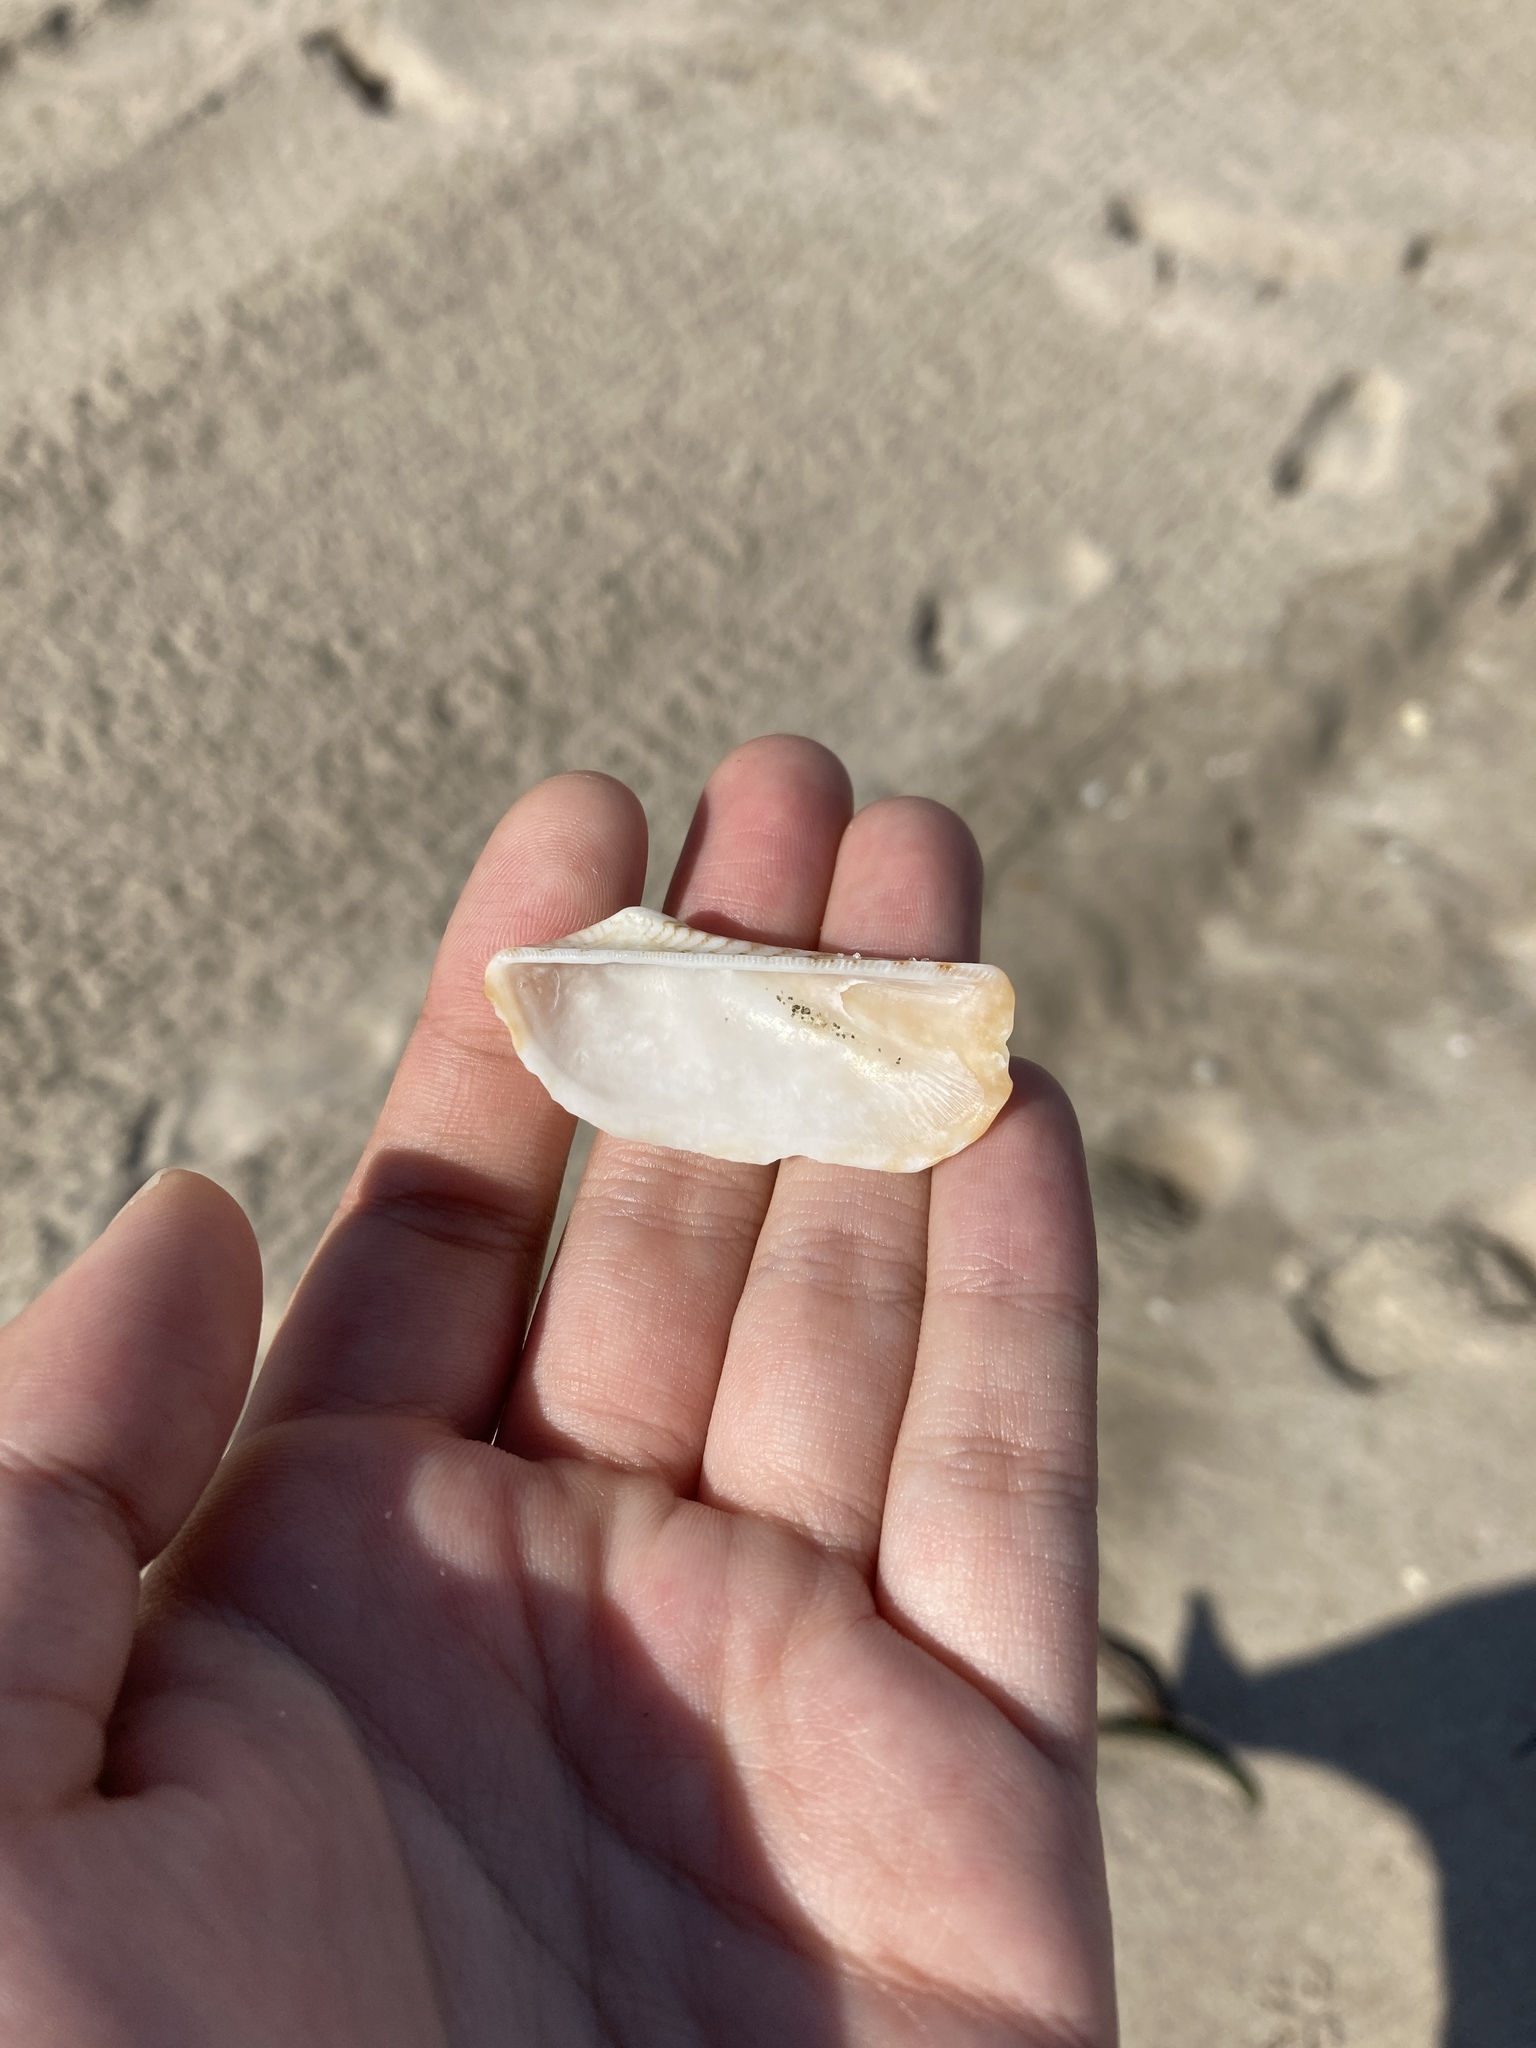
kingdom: Animalia
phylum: Mollusca
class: Bivalvia
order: Arcida
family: Arcidae
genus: Arca
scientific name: Arca zebra
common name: Atlantic turkey wing
